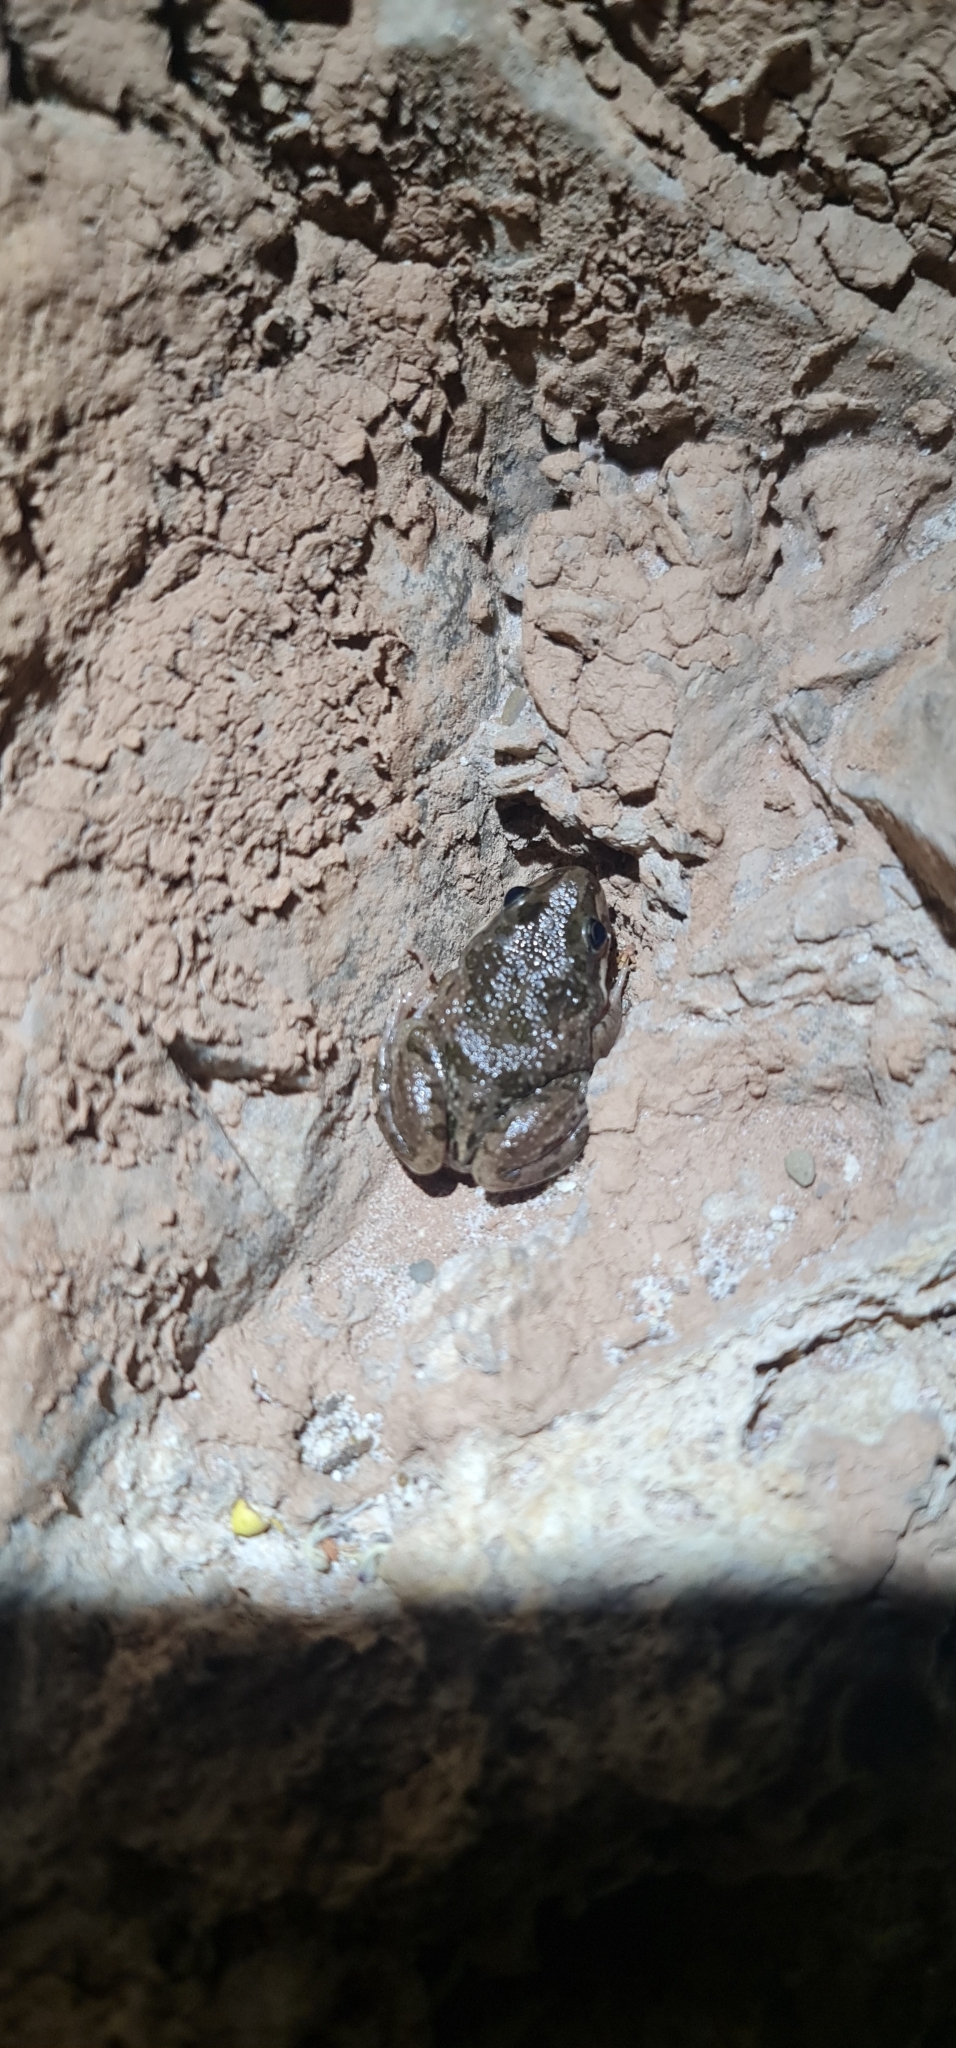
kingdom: Animalia
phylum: Chordata
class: Amphibia
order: Anura
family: Limnodynastidae
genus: Limnodynastes
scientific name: Limnodynastes tasmaniensis
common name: Spotted marsh frog
